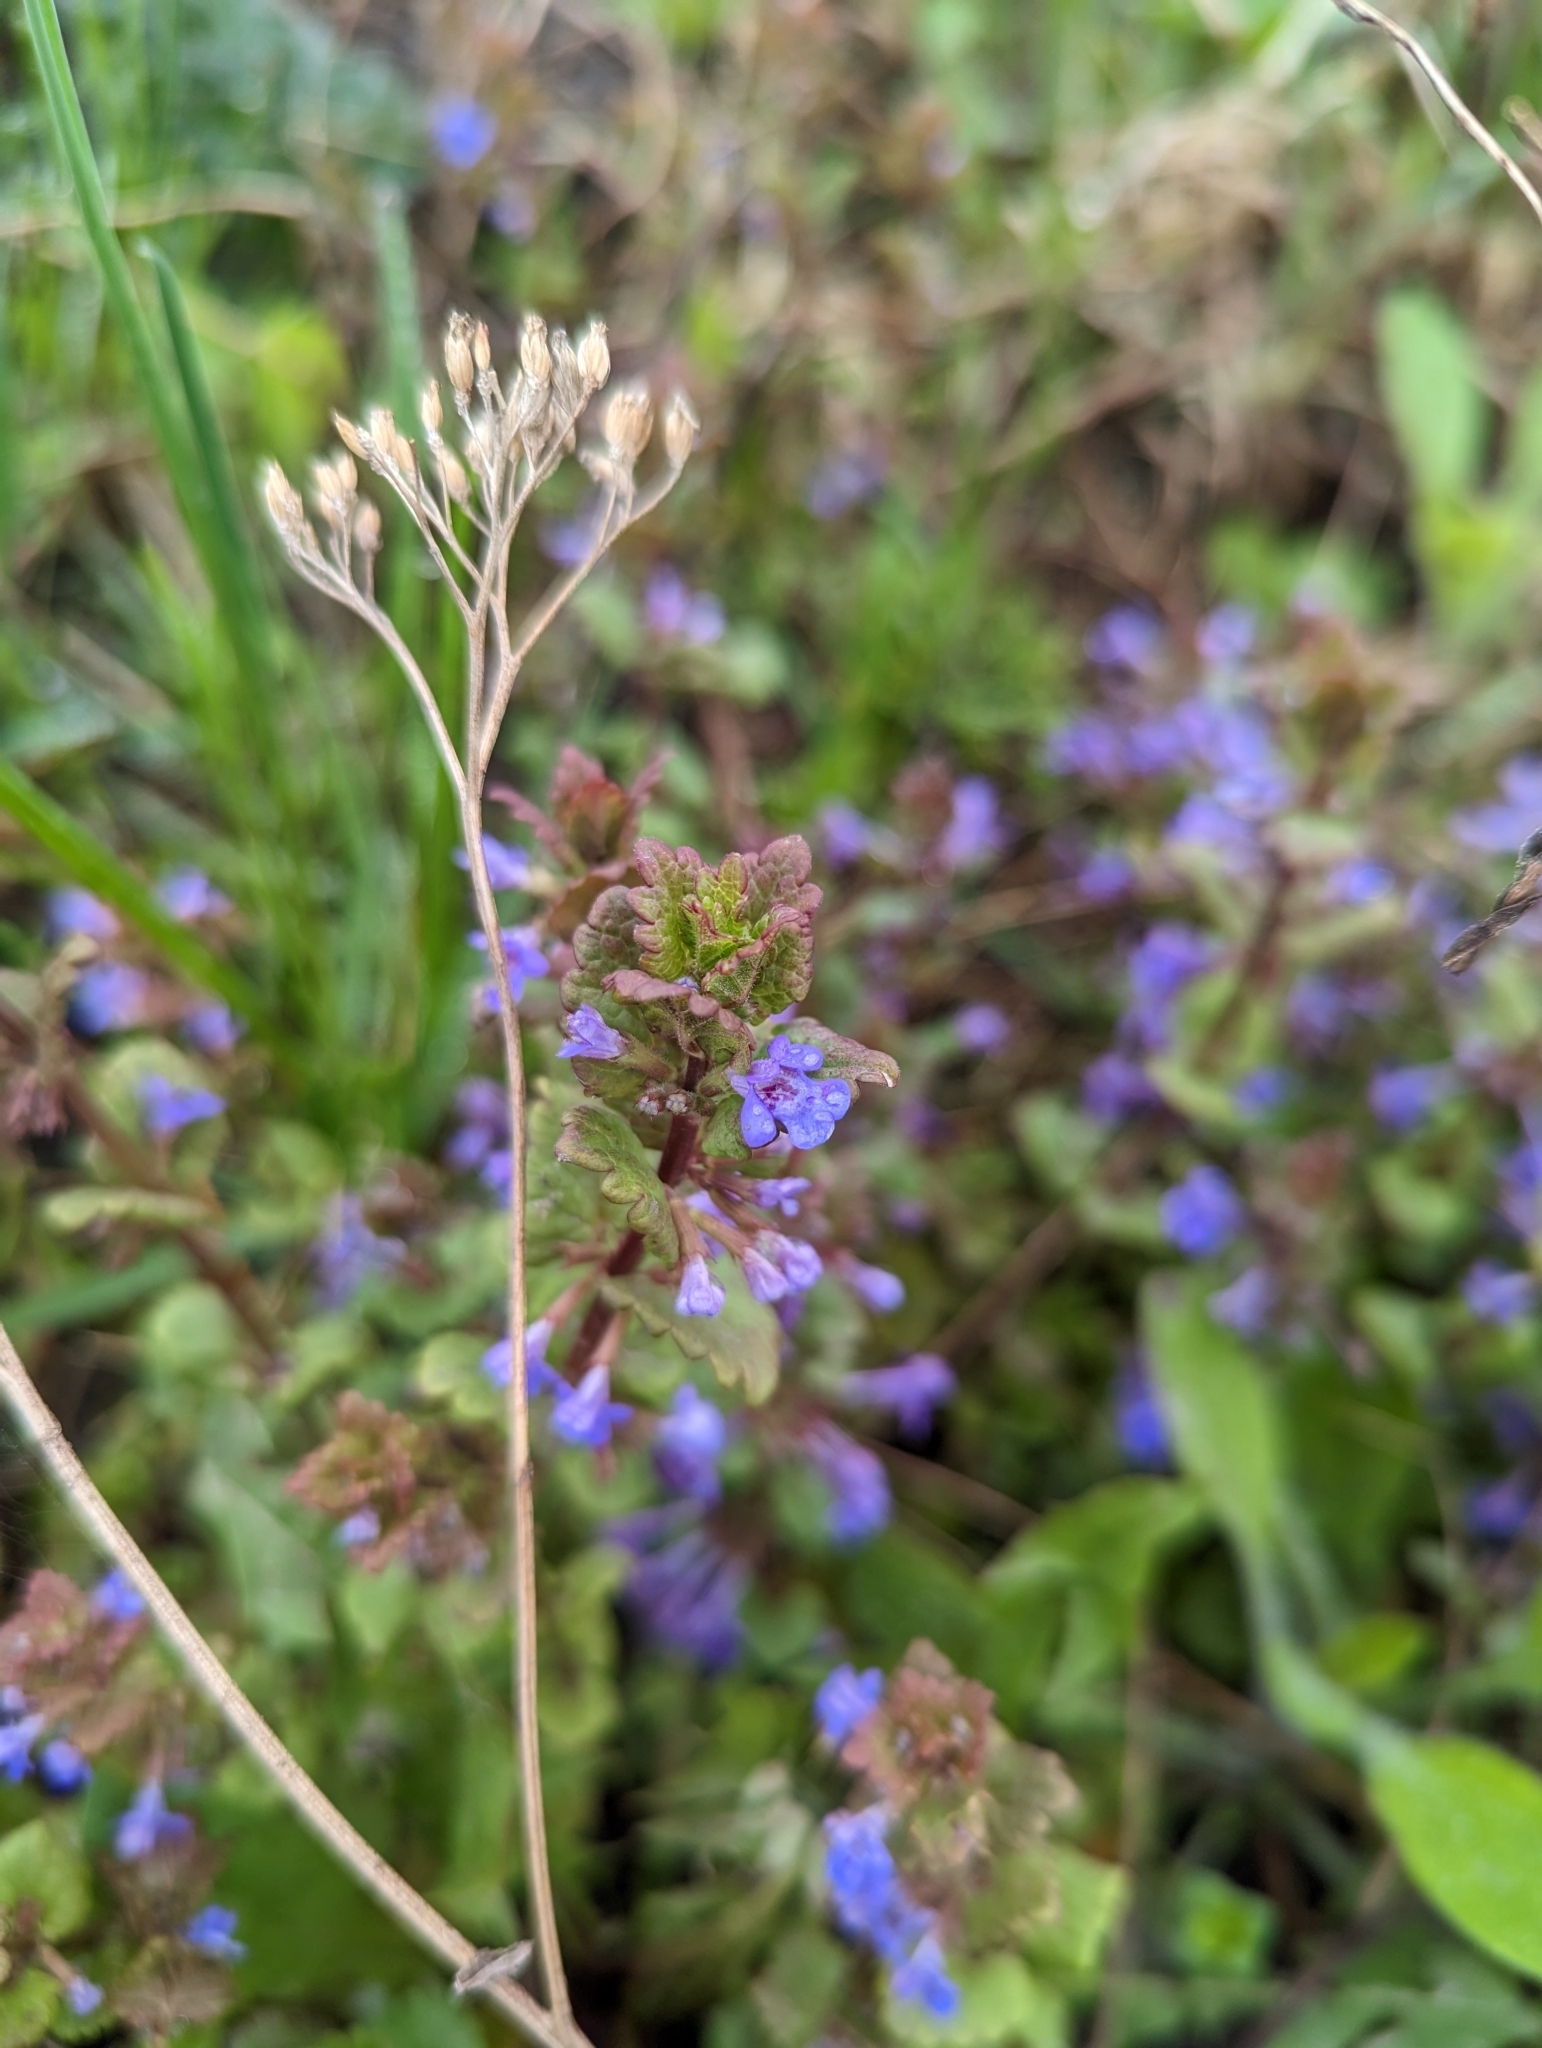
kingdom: Plantae
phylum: Tracheophyta
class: Magnoliopsida
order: Lamiales
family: Lamiaceae
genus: Glechoma
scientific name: Glechoma hederacea
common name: Ground ivy
